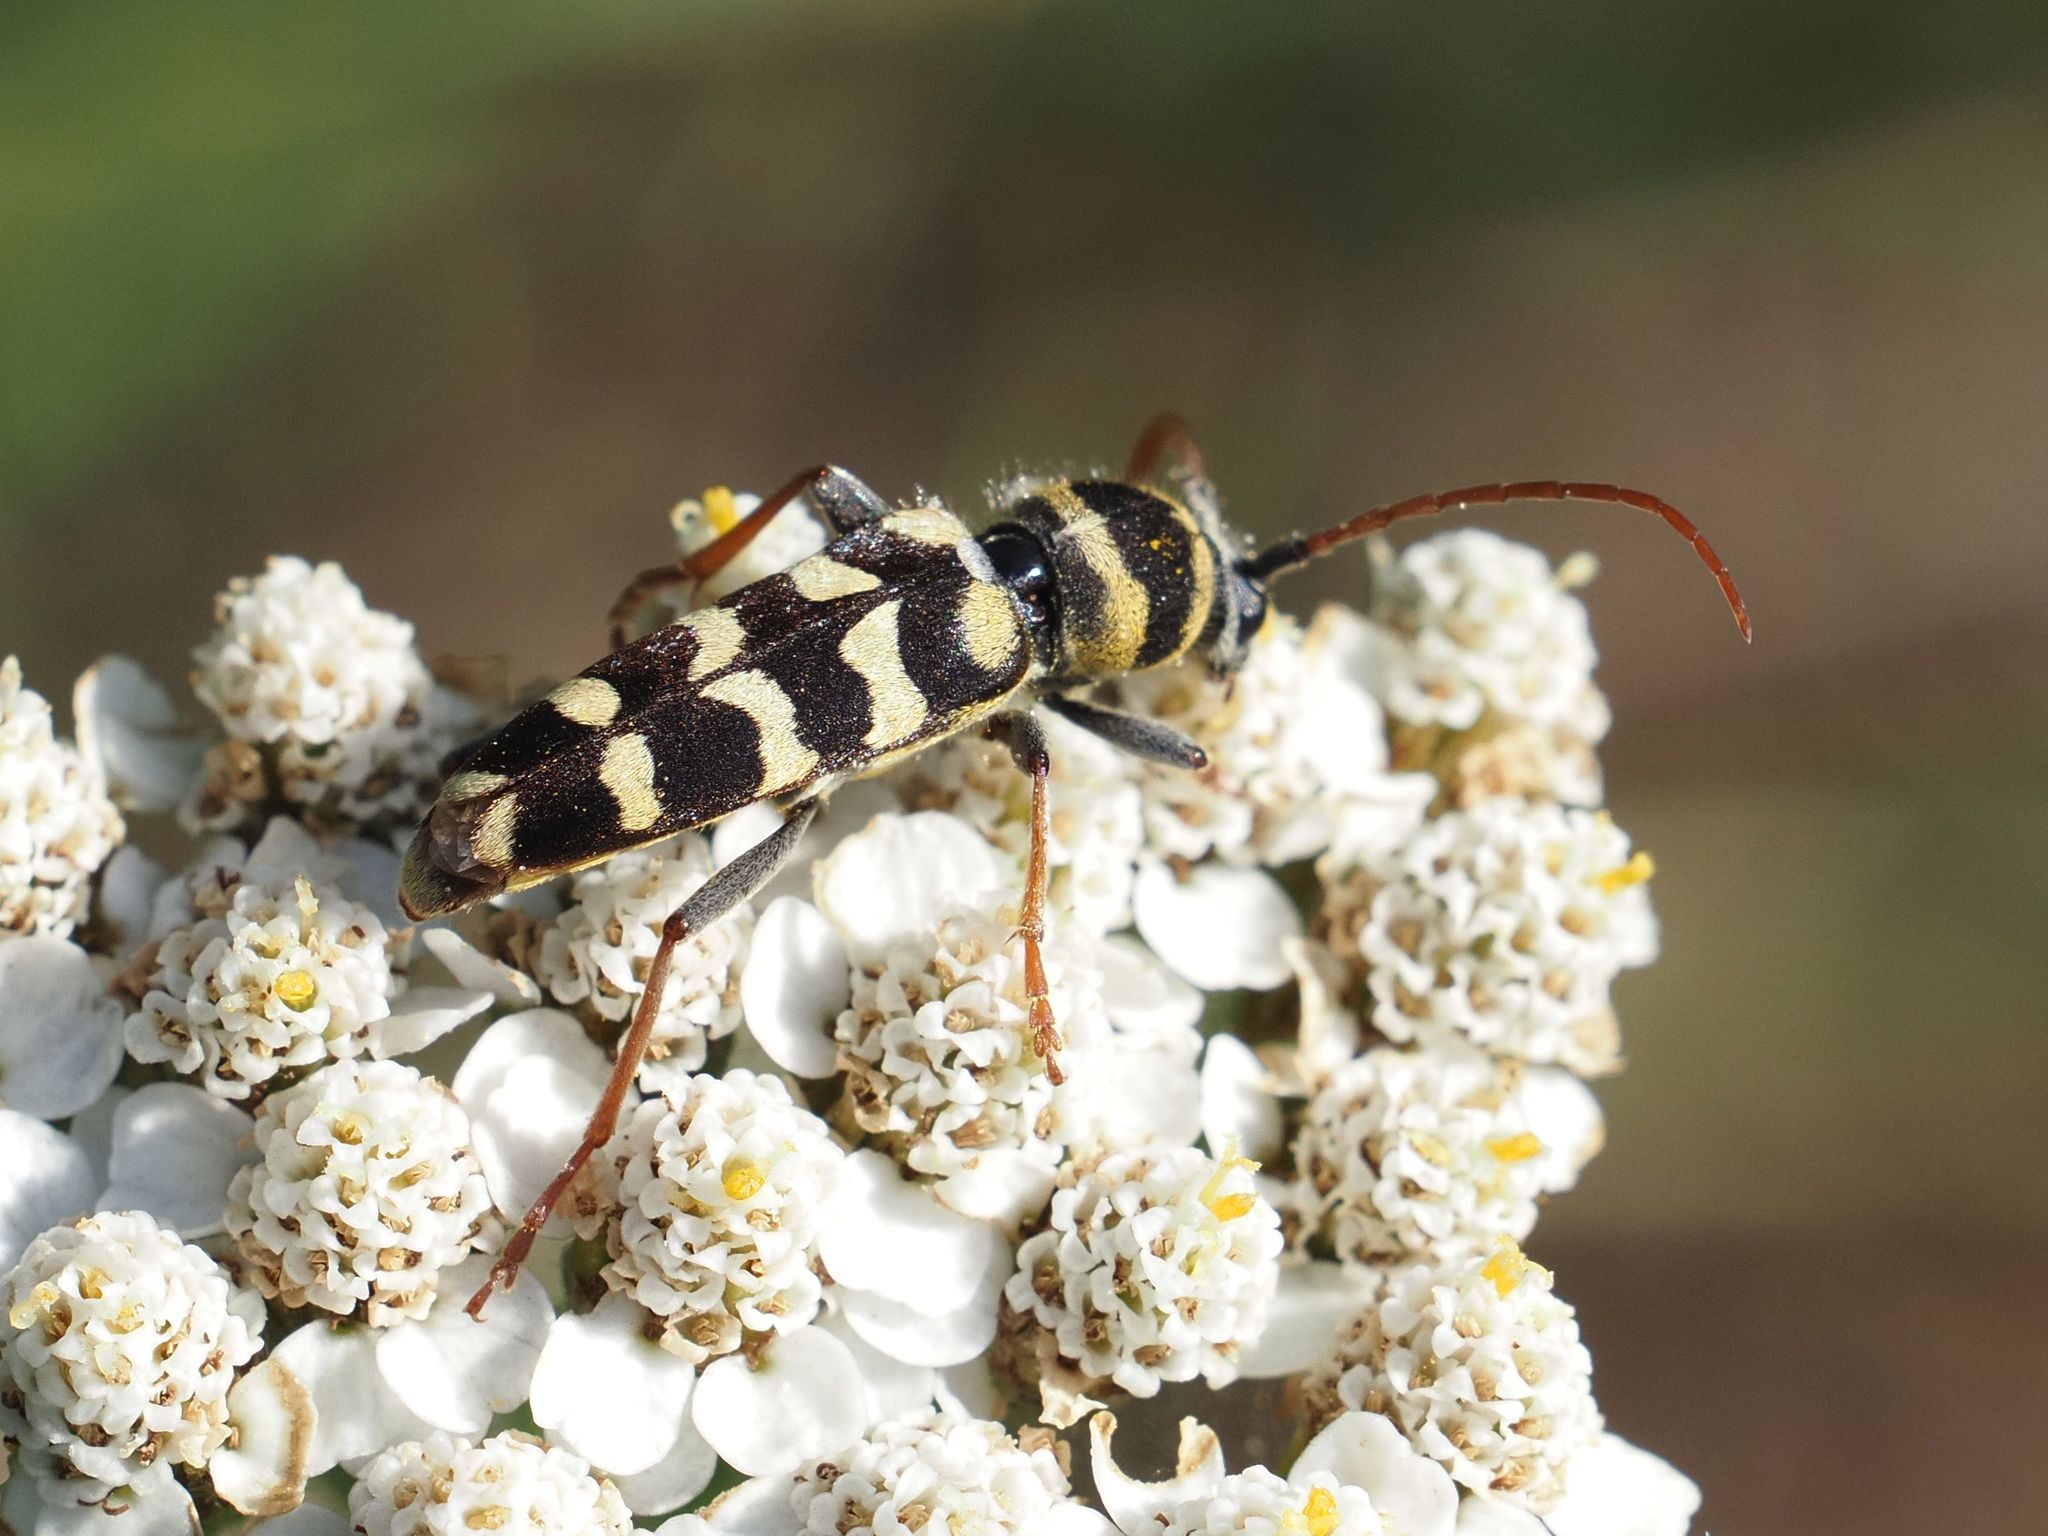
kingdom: Animalia
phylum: Arthropoda
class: Insecta
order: Coleoptera
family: Cerambycidae
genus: Plagionotus
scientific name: Plagionotus floralis
